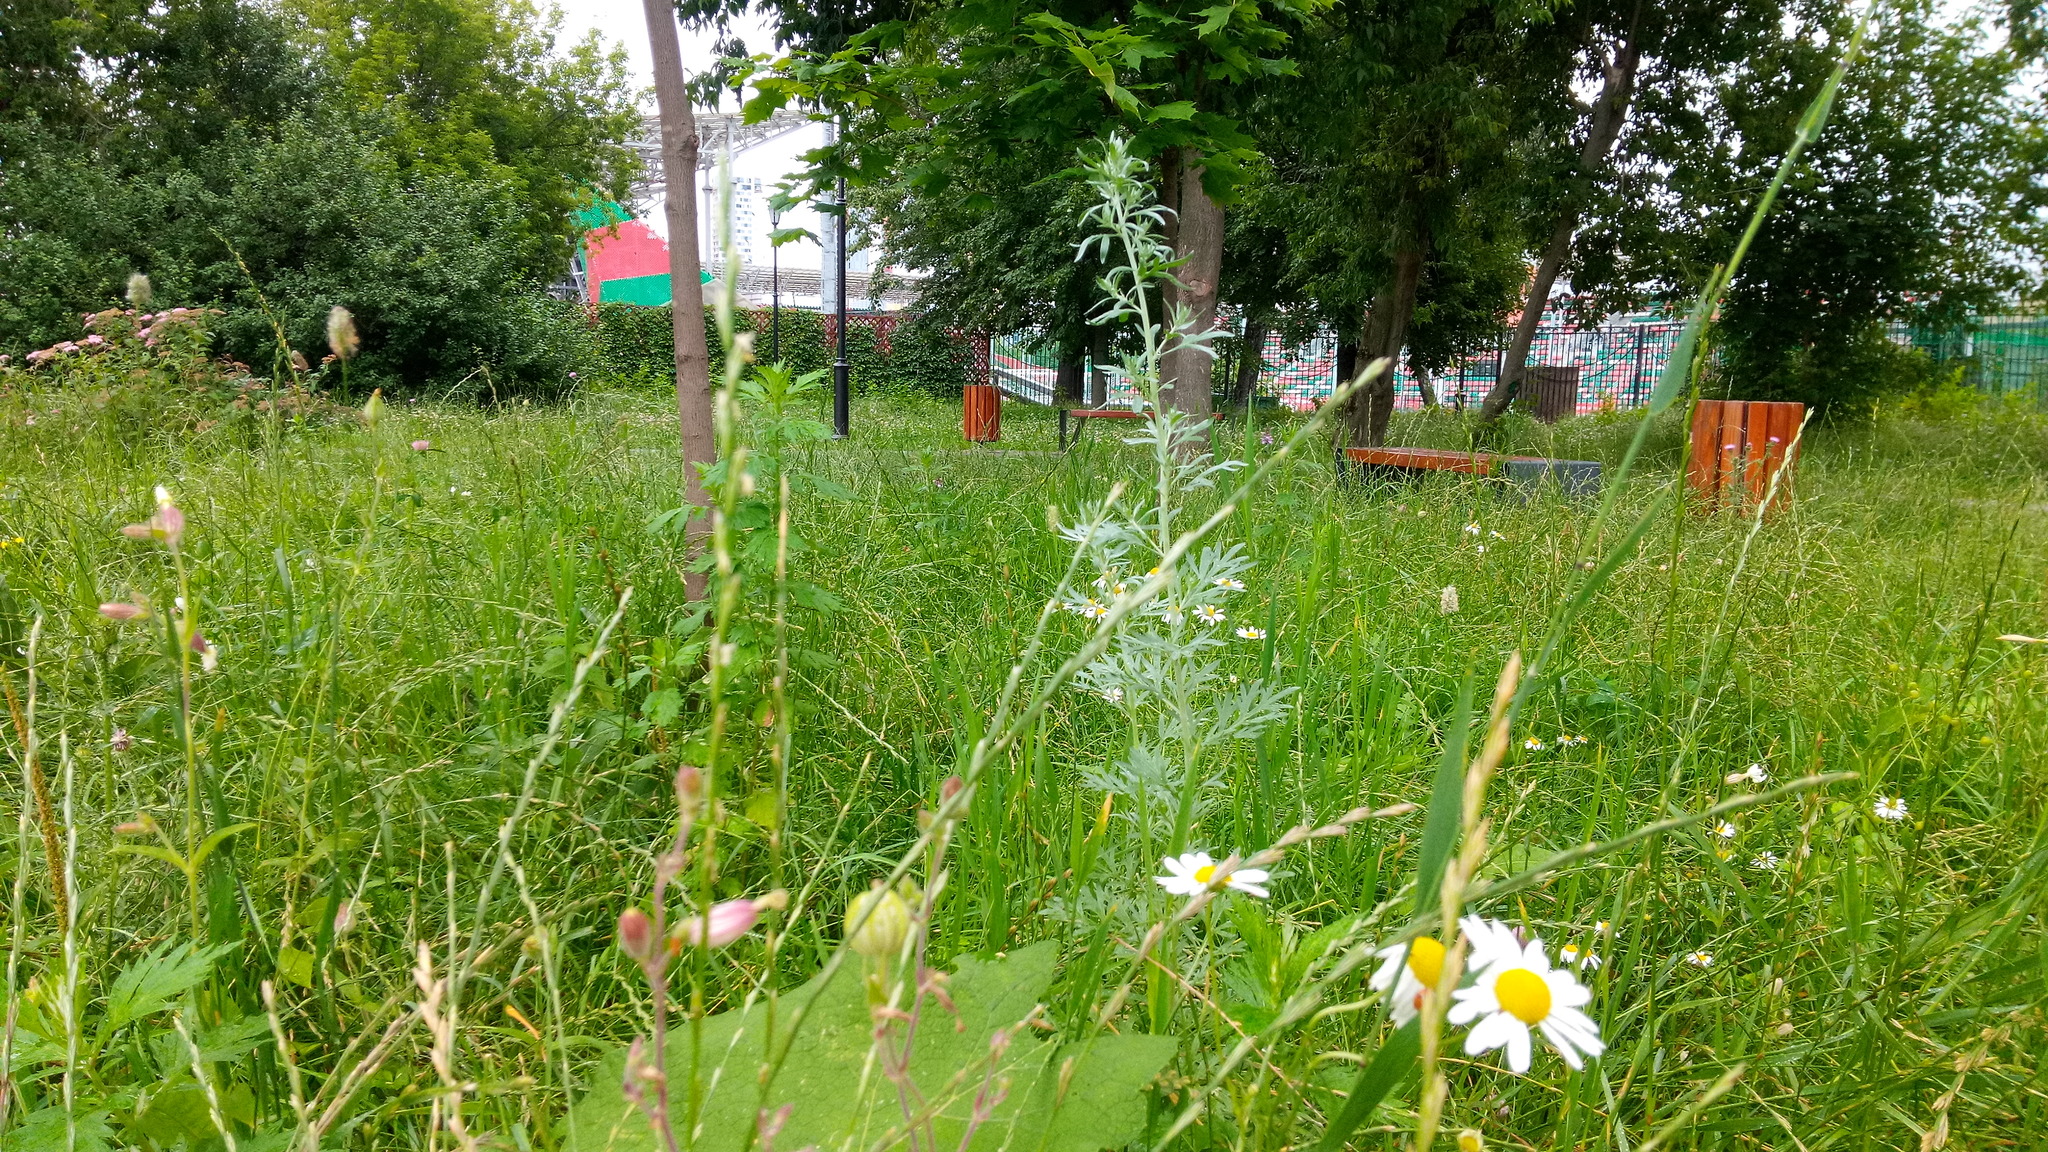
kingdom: Plantae
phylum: Tracheophyta
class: Magnoliopsida
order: Asterales
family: Asteraceae
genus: Artemisia
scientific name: Artemisia absinthium
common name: Wormwood
